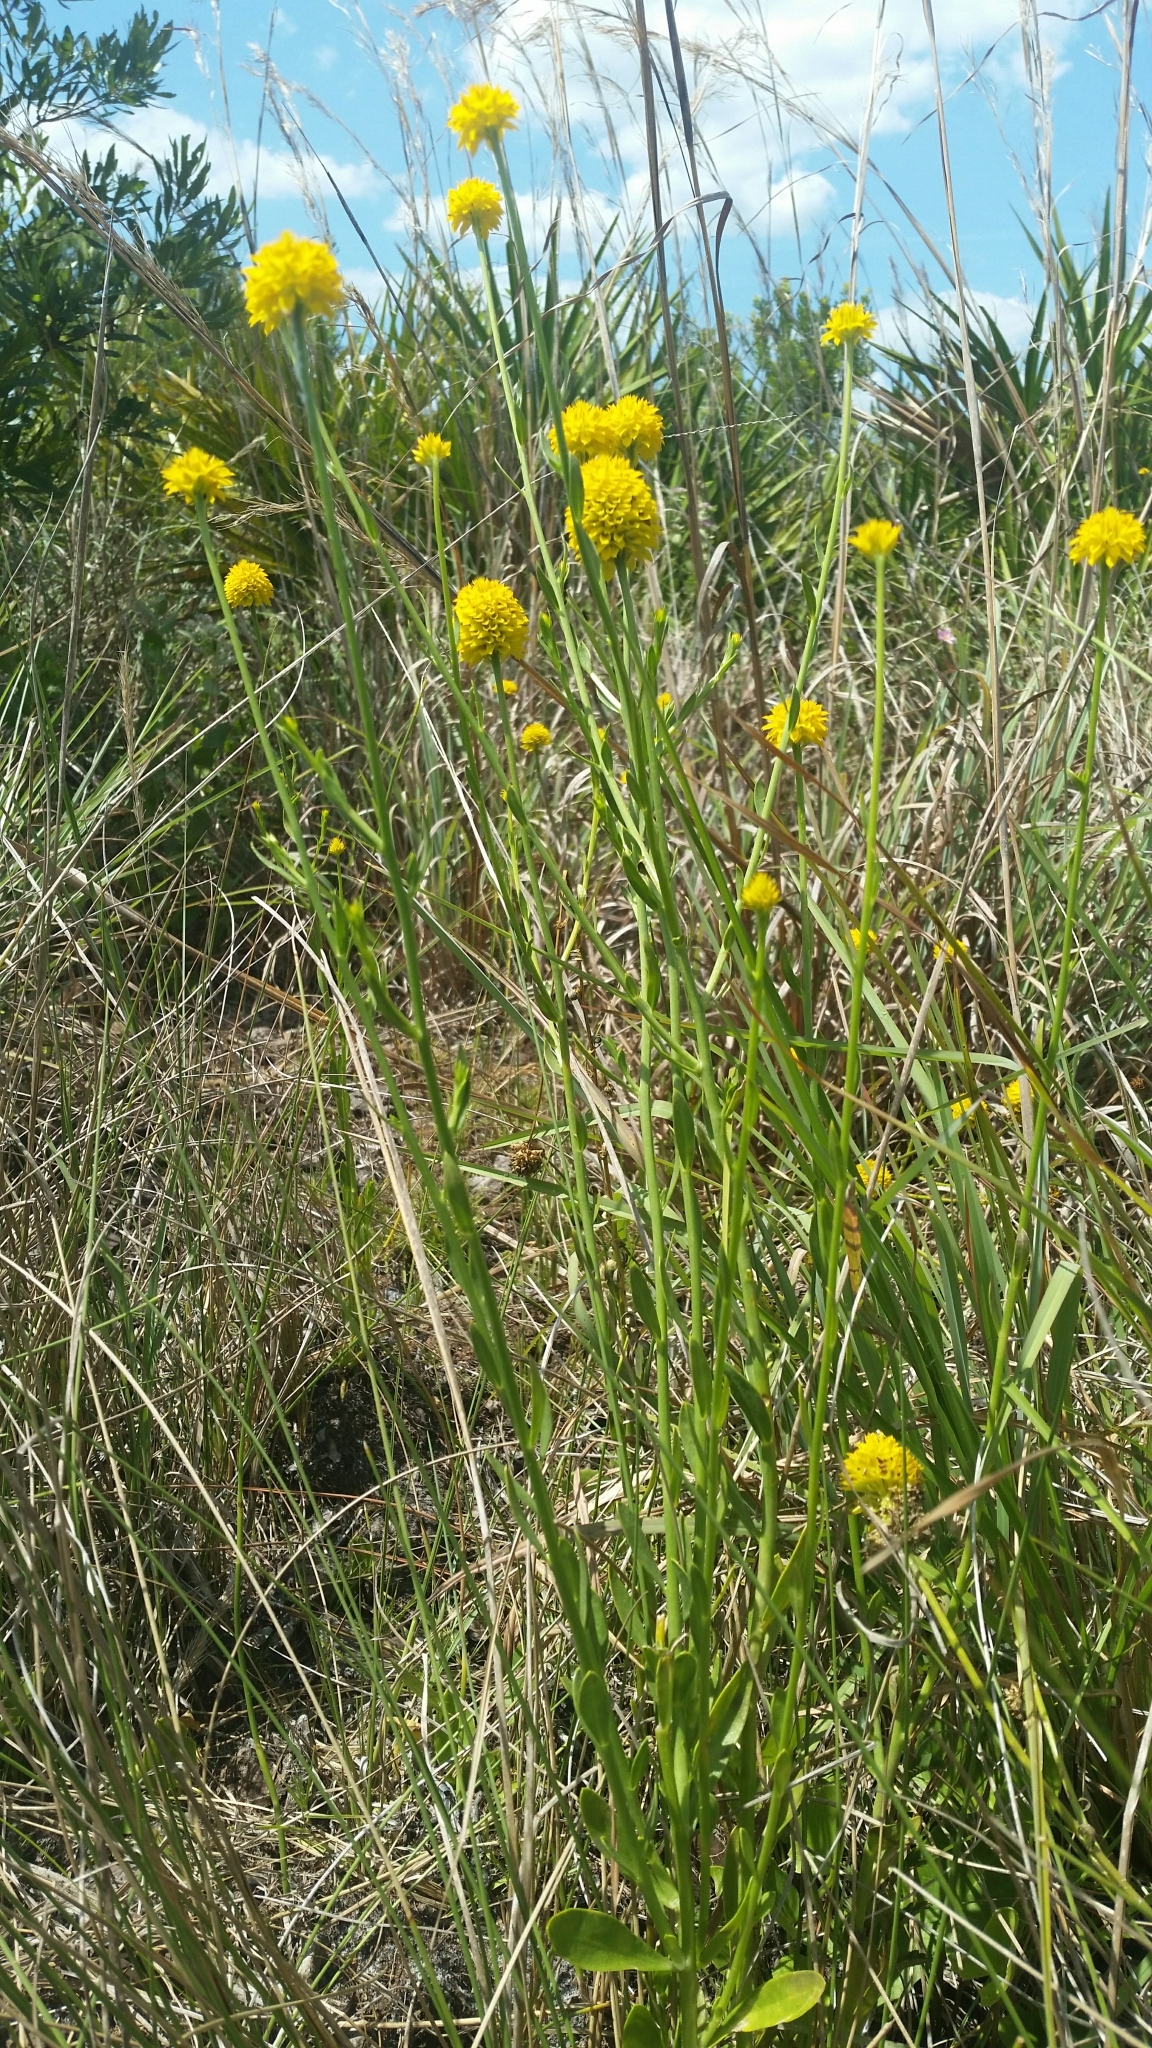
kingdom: Plantae
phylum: Tracheophyta
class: Magnoliopsida
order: Fabales
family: Polygalaceae
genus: Polygala
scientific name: Polygala rugelii
